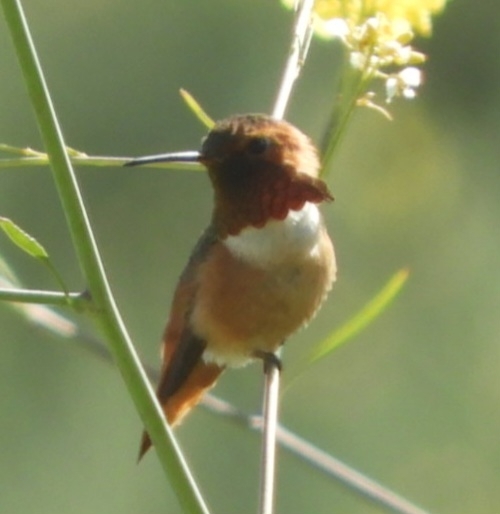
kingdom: Animalia
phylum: Chordata
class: Aves
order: Apodiformes
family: Trochilidae
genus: Selasphorus
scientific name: Selasphorus sasin
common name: Allen's hummingbird
